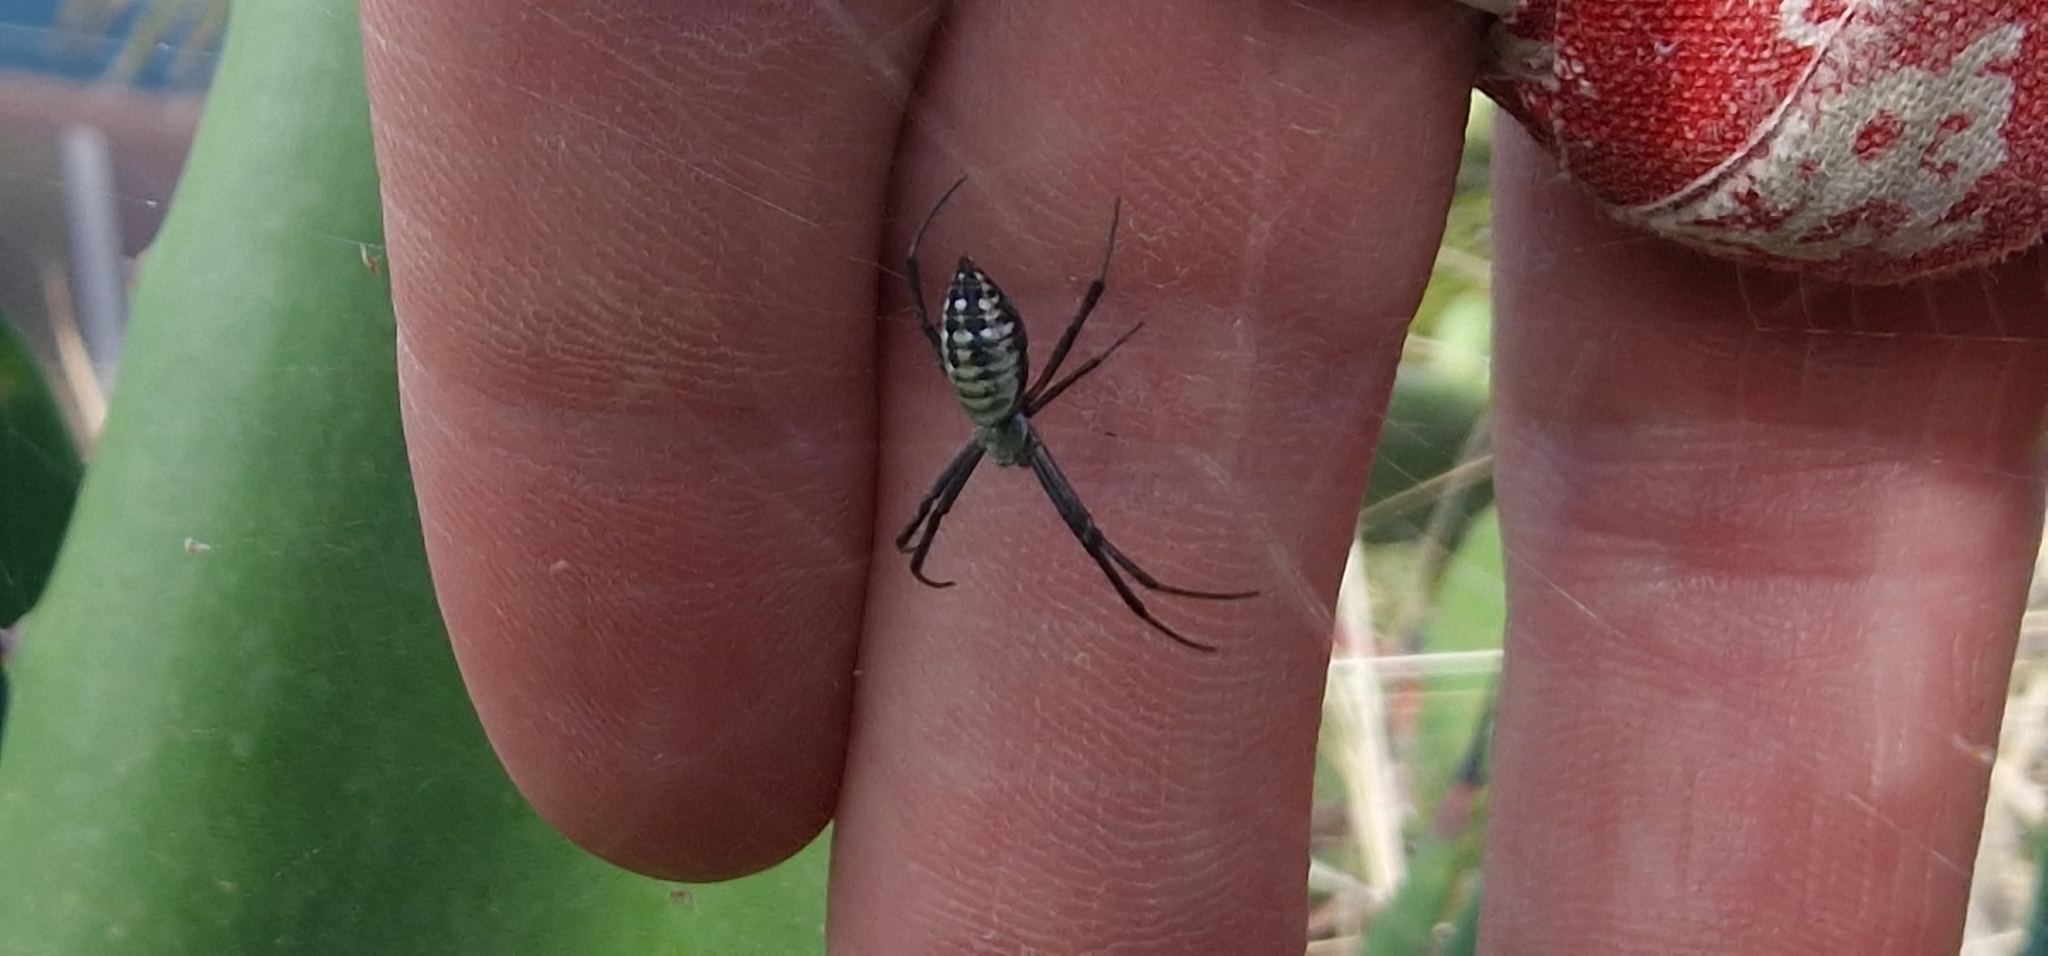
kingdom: Animalia
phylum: Arthropoda
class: Arachnida
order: Araneae
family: Araneidae
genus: Argiope
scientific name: Argiope trifasciata
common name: Banded garden spider
